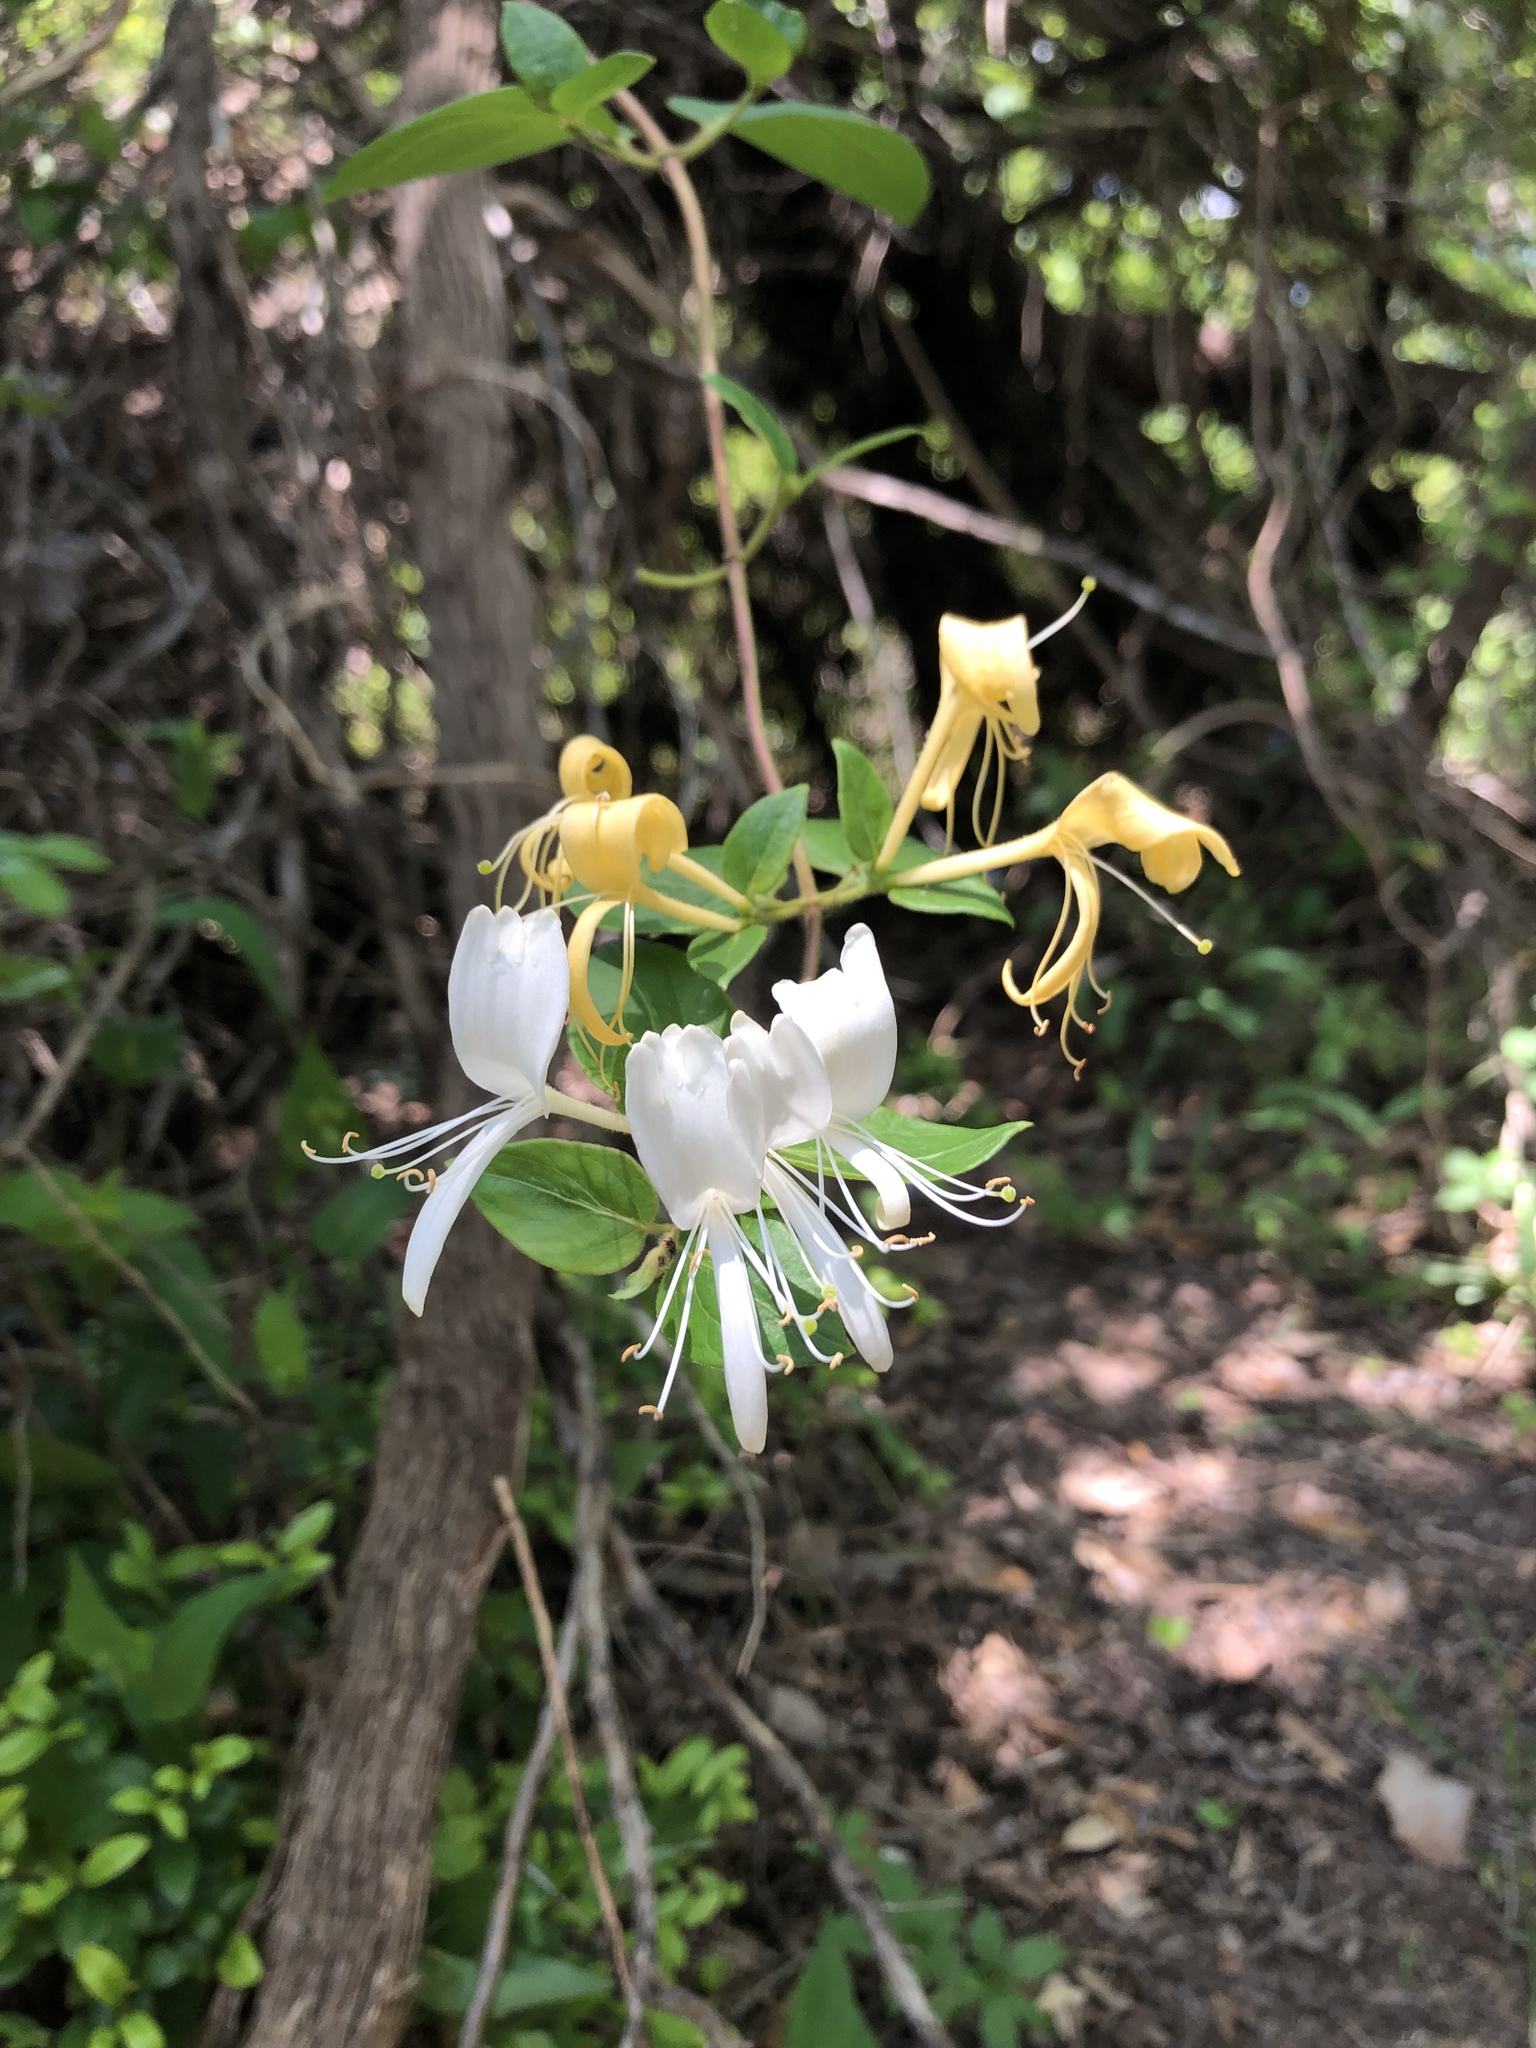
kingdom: Plantae
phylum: Tracheophyta
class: Magnoliopsida
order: Dipsacales
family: Caprifoliaceae
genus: Lonicera
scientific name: Lonicera japonica
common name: Japanese honeysuckle
